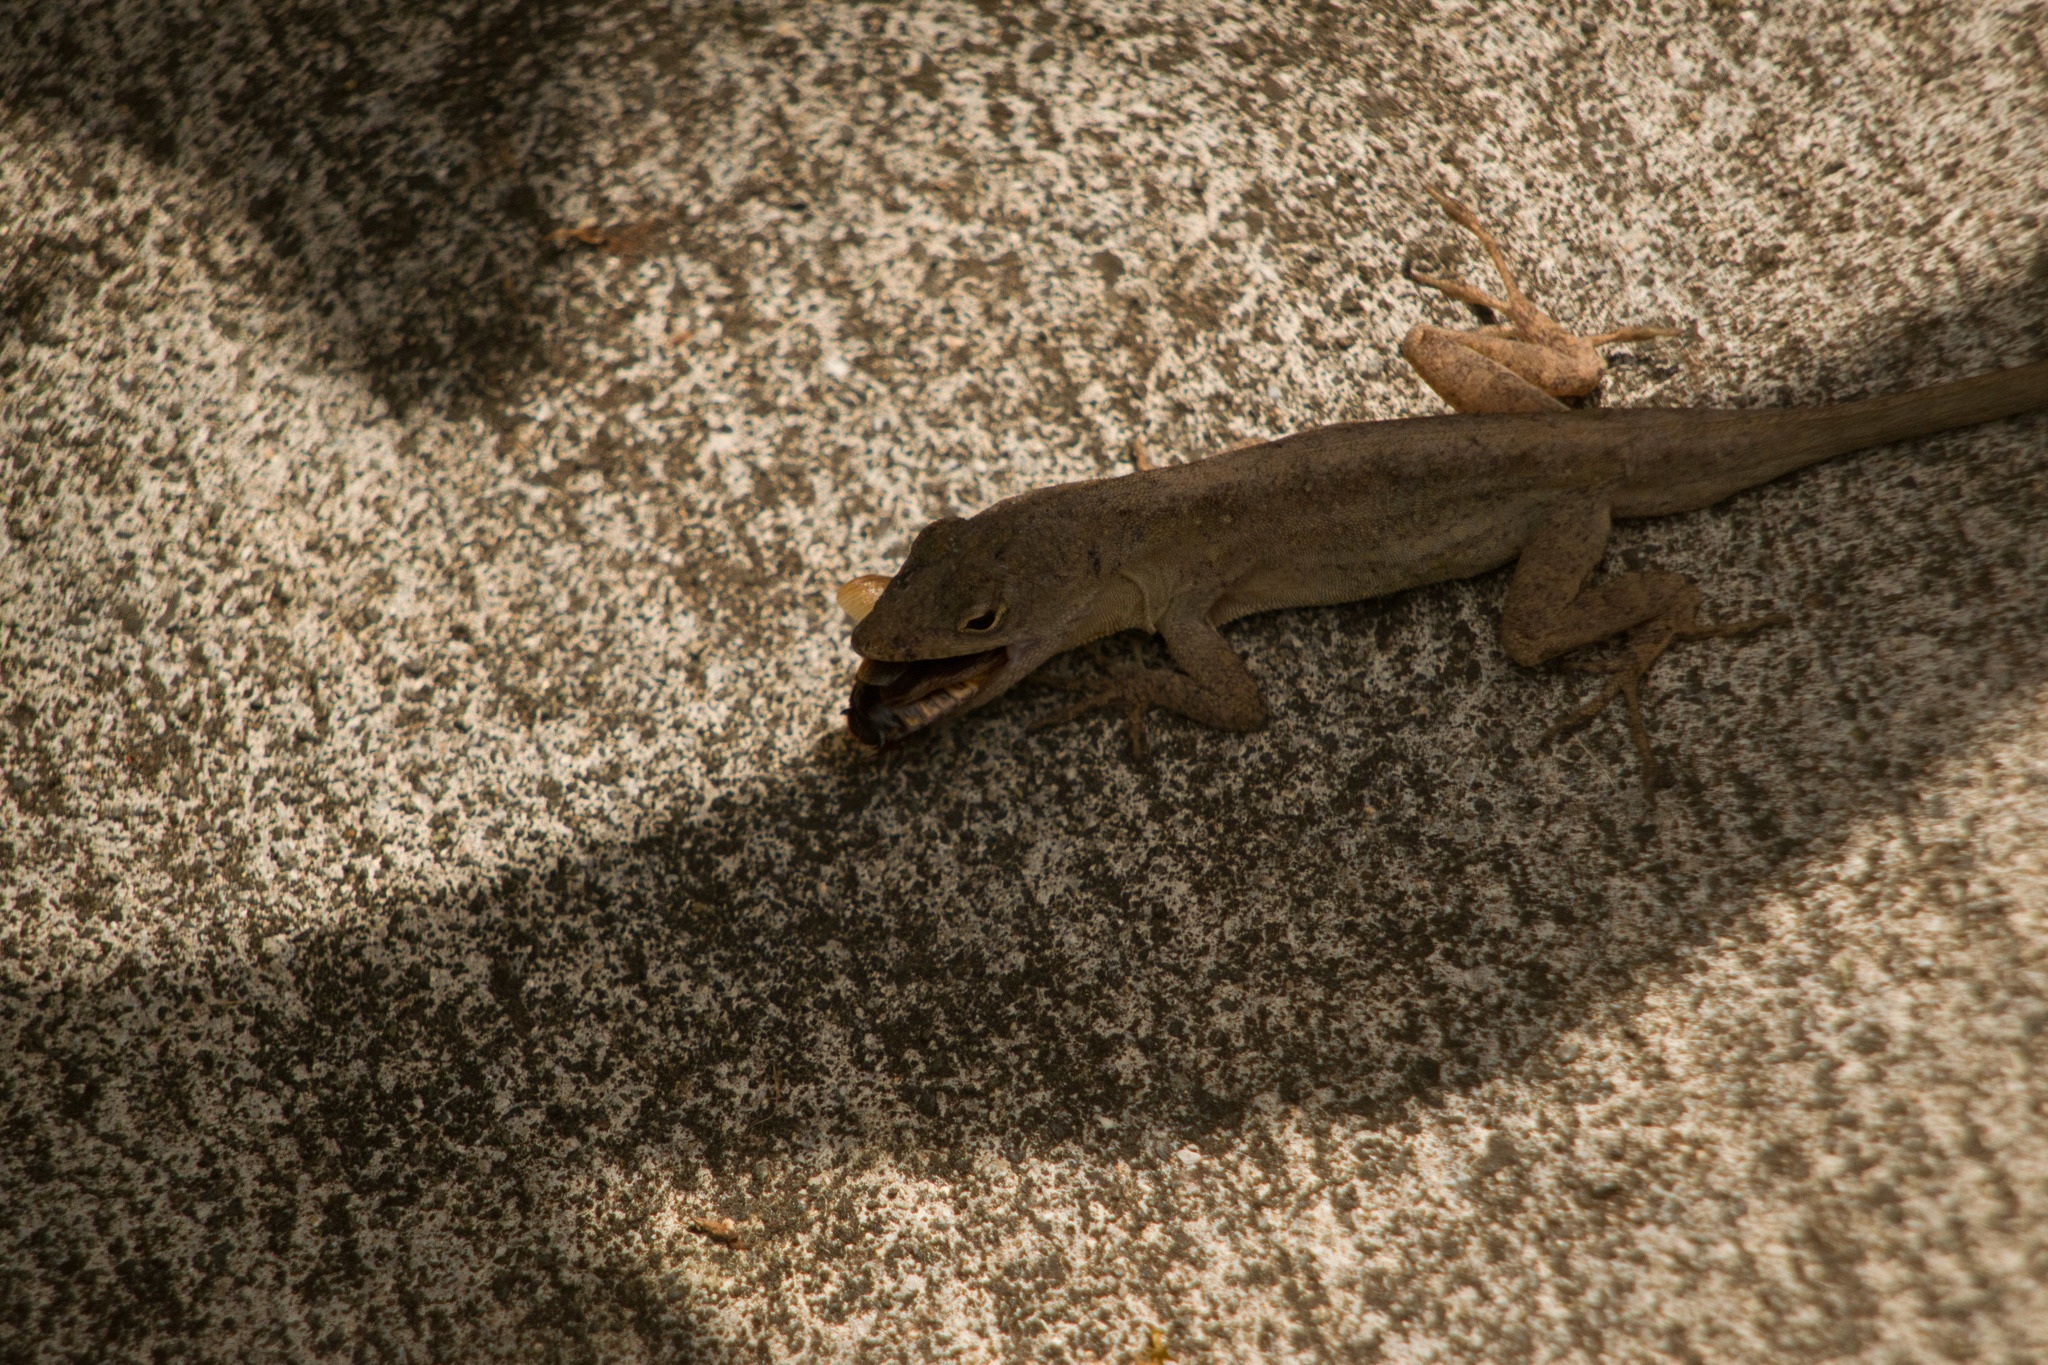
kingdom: Animalia
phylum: Chordata
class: Squamata
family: Dactyloidae
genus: Anolis
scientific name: Anolis sagrei
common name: Brown anole
